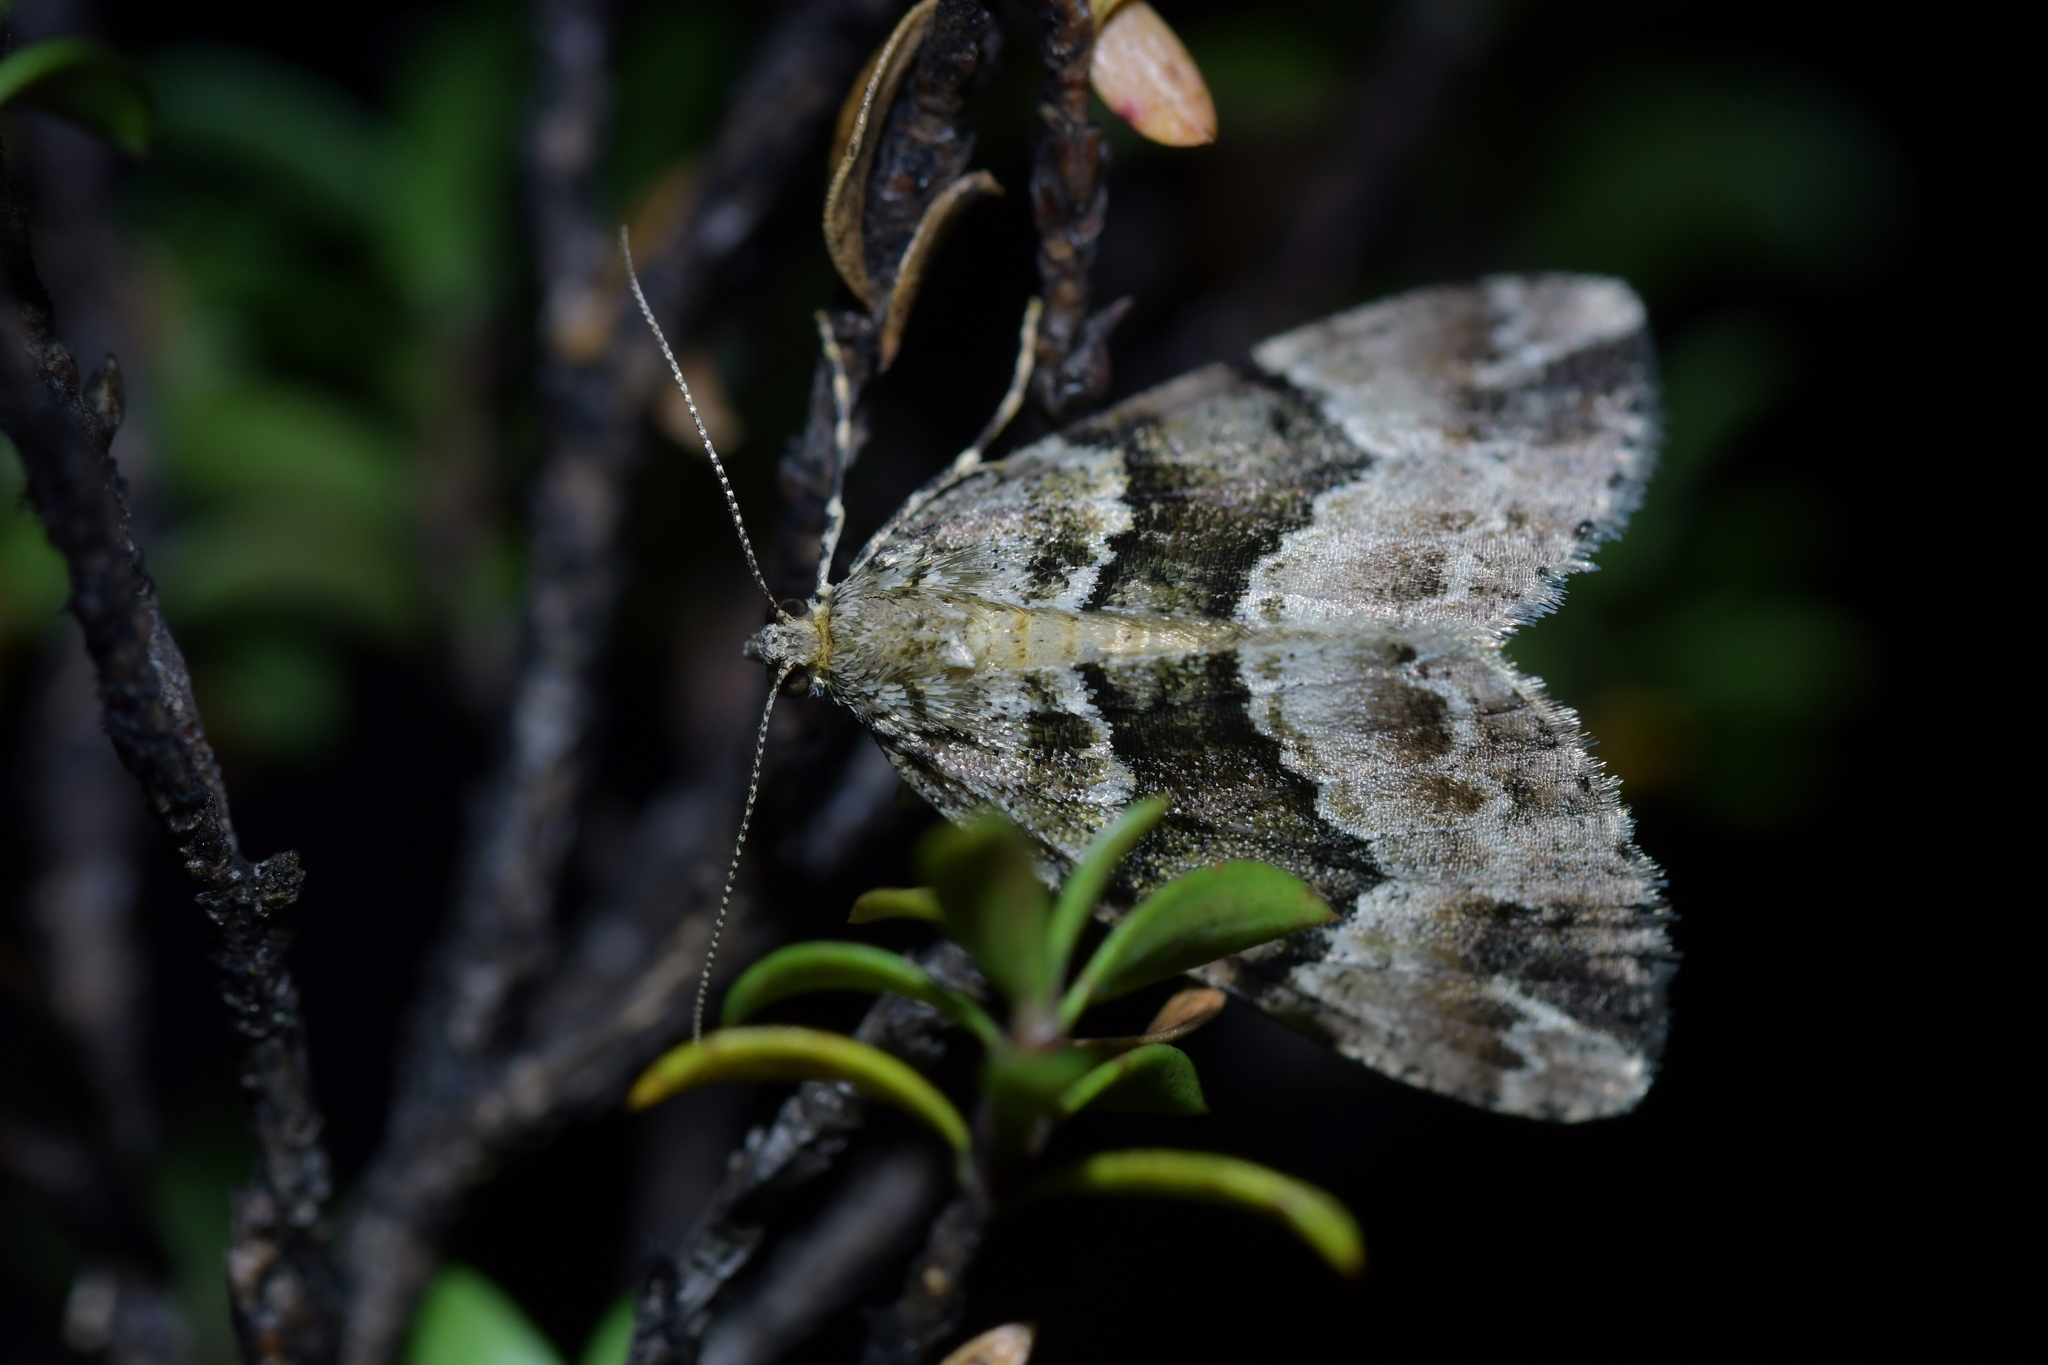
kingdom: Animalia
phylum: Arthropoda
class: Insecta
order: Lepidoptera
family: Geometridae
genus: Pseudocoremia
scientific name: Pseudocoremia productata
